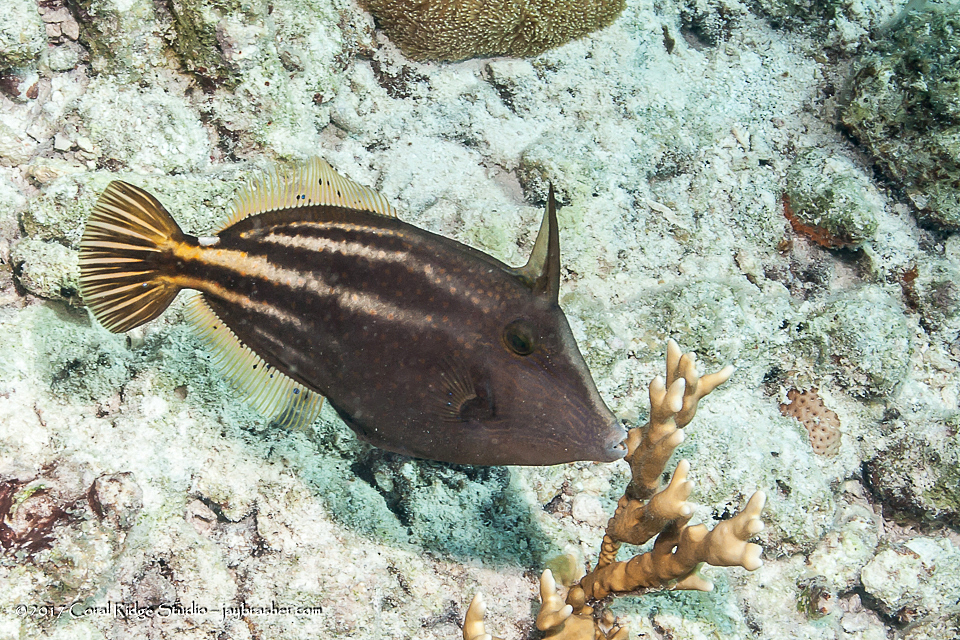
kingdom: Animalia
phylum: Chordata
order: Tetraodontiformes
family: Monacanthidae
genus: Cantherhines
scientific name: Cantherhines pullus
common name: Orangespotted filefish
